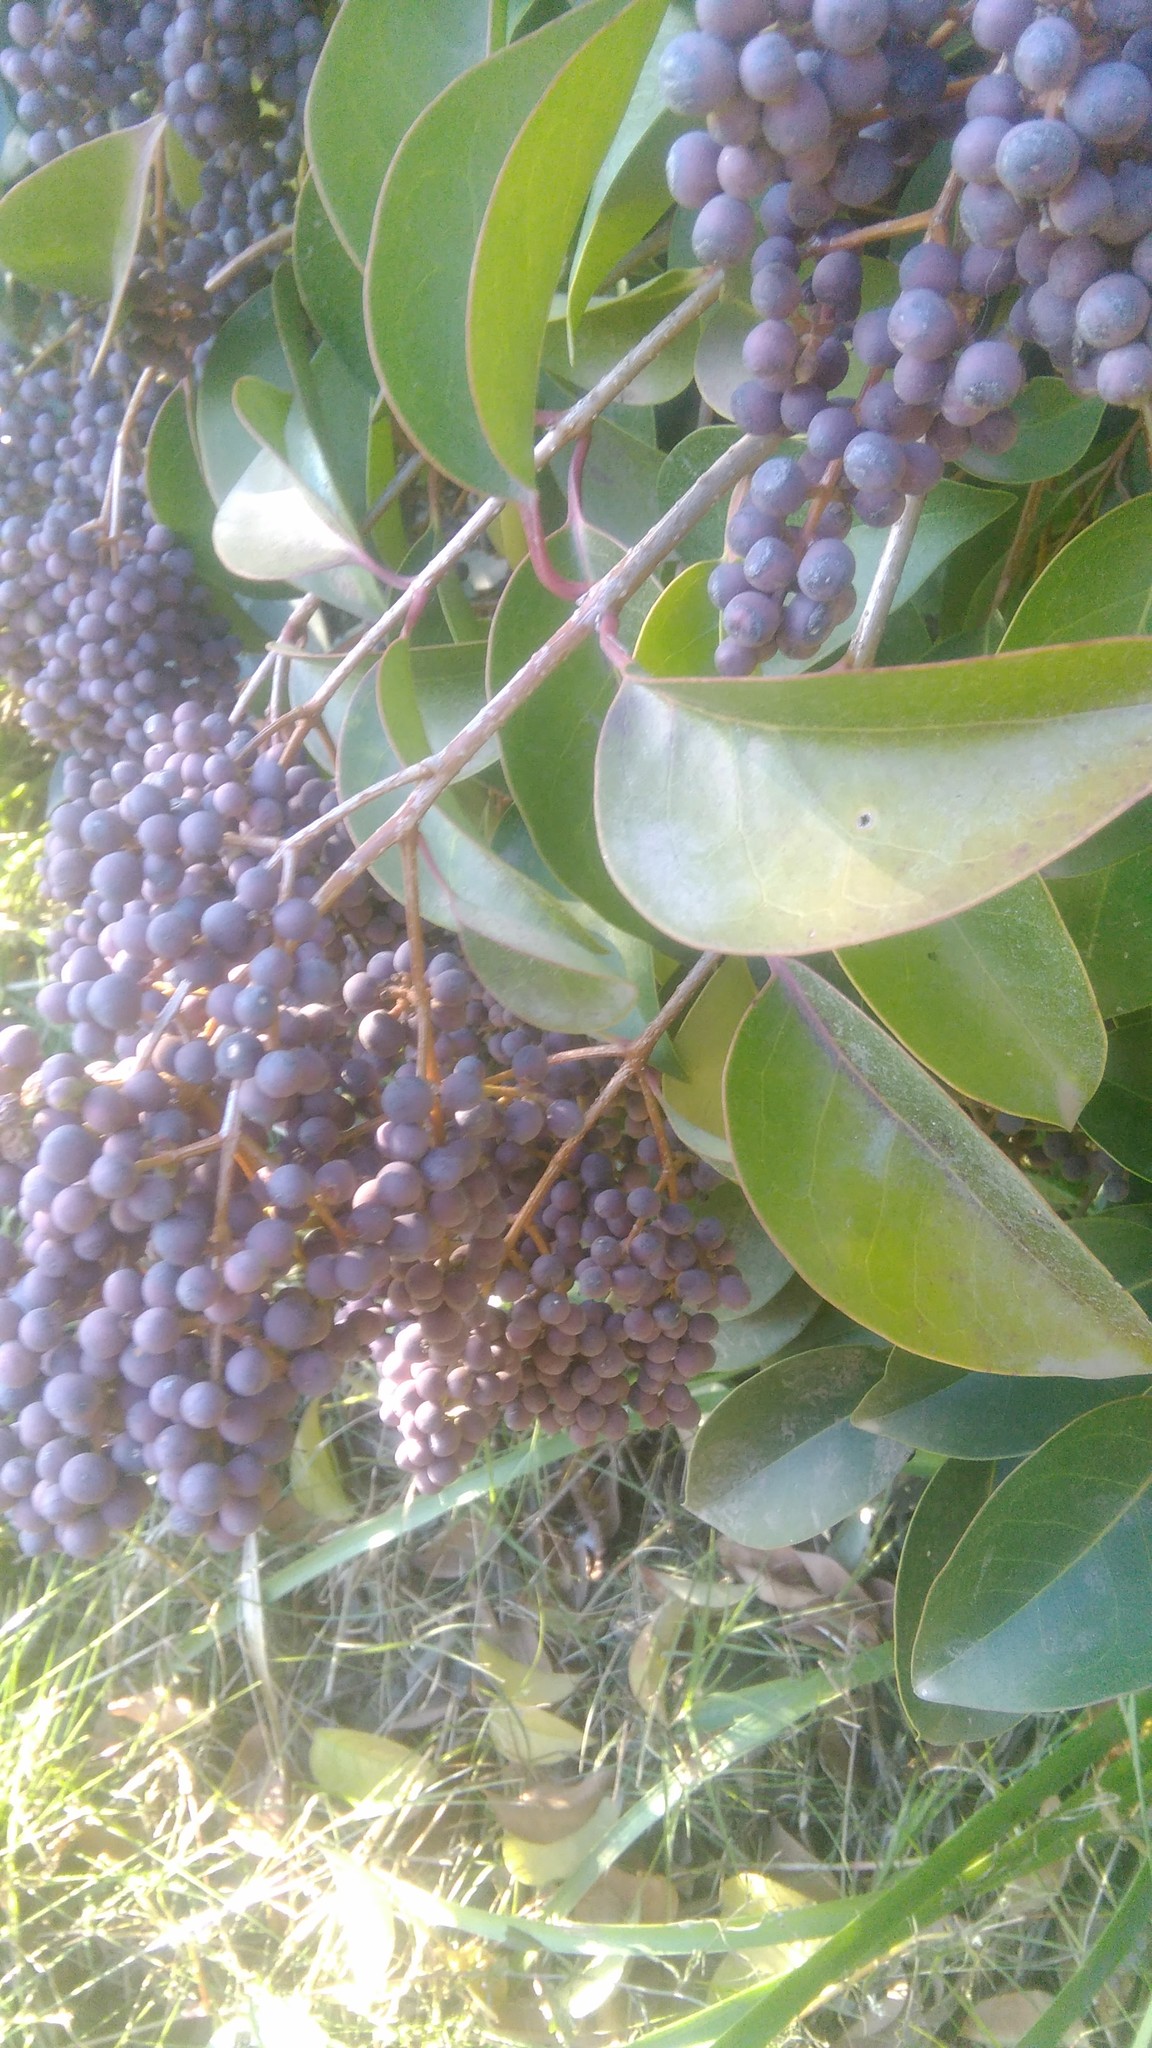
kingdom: Plantae
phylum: Tracheophyta
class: Magnoliopsida
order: Lamiales
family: Oleaceae
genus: Ligustrum
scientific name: Ligustrum lucidum
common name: Glossy privet
